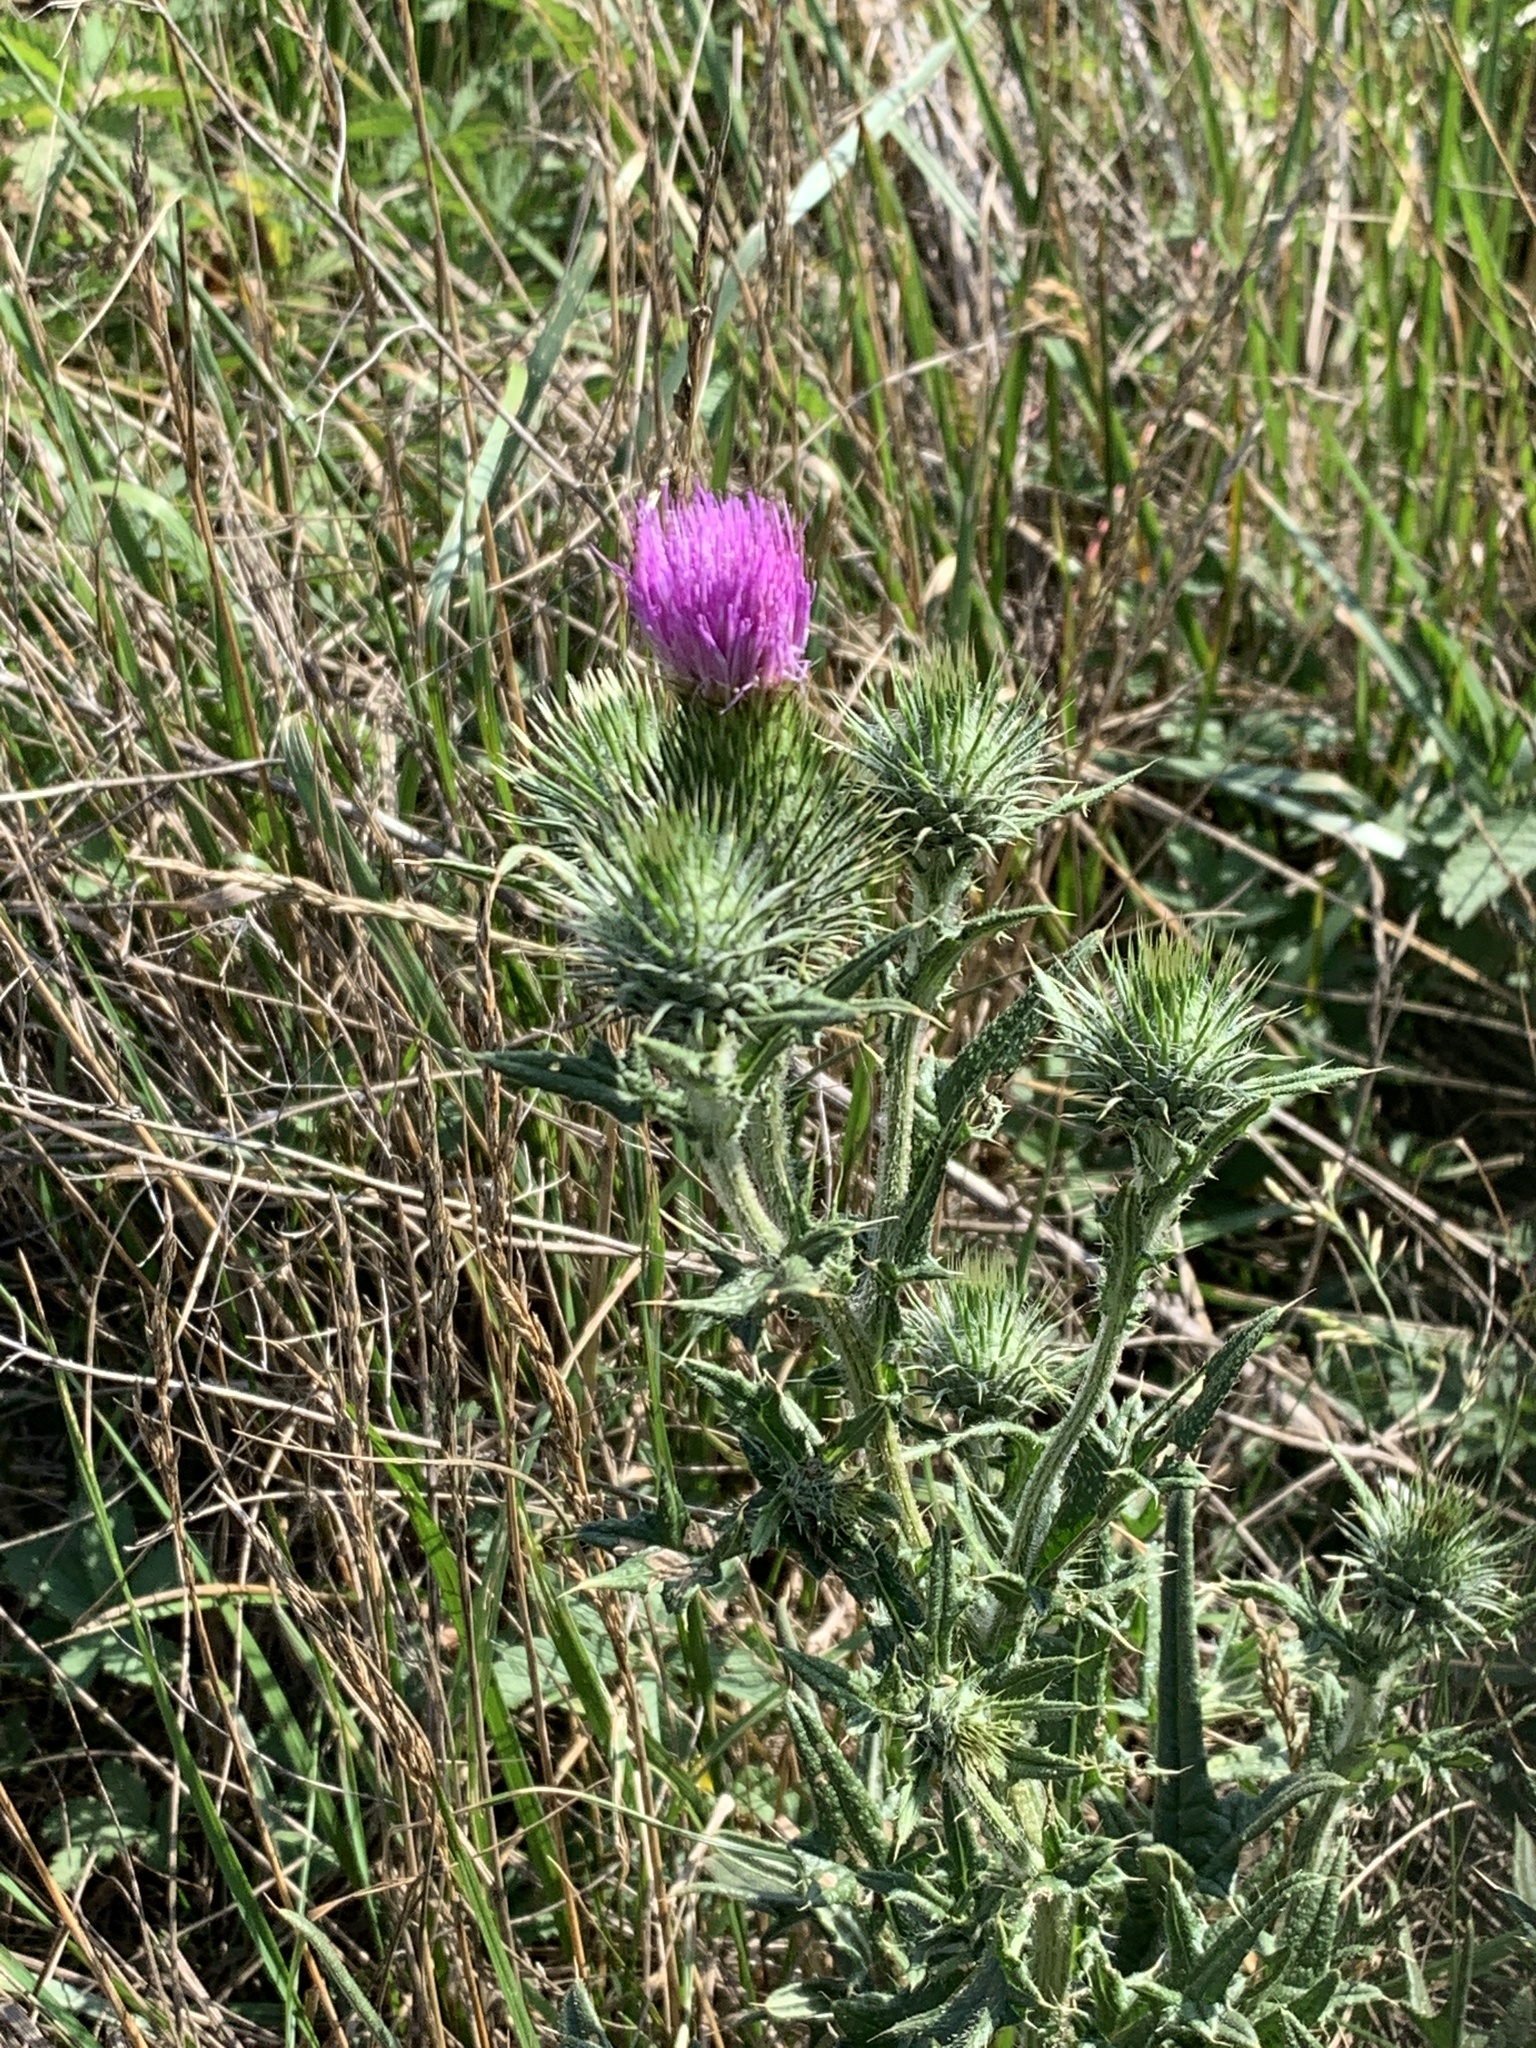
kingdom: Plantae
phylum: Tracheophyta
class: Magnoliopsida
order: Asterales
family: Asteraceae
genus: Cirsium
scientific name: Cirsium vulgare
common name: Bull thistle
